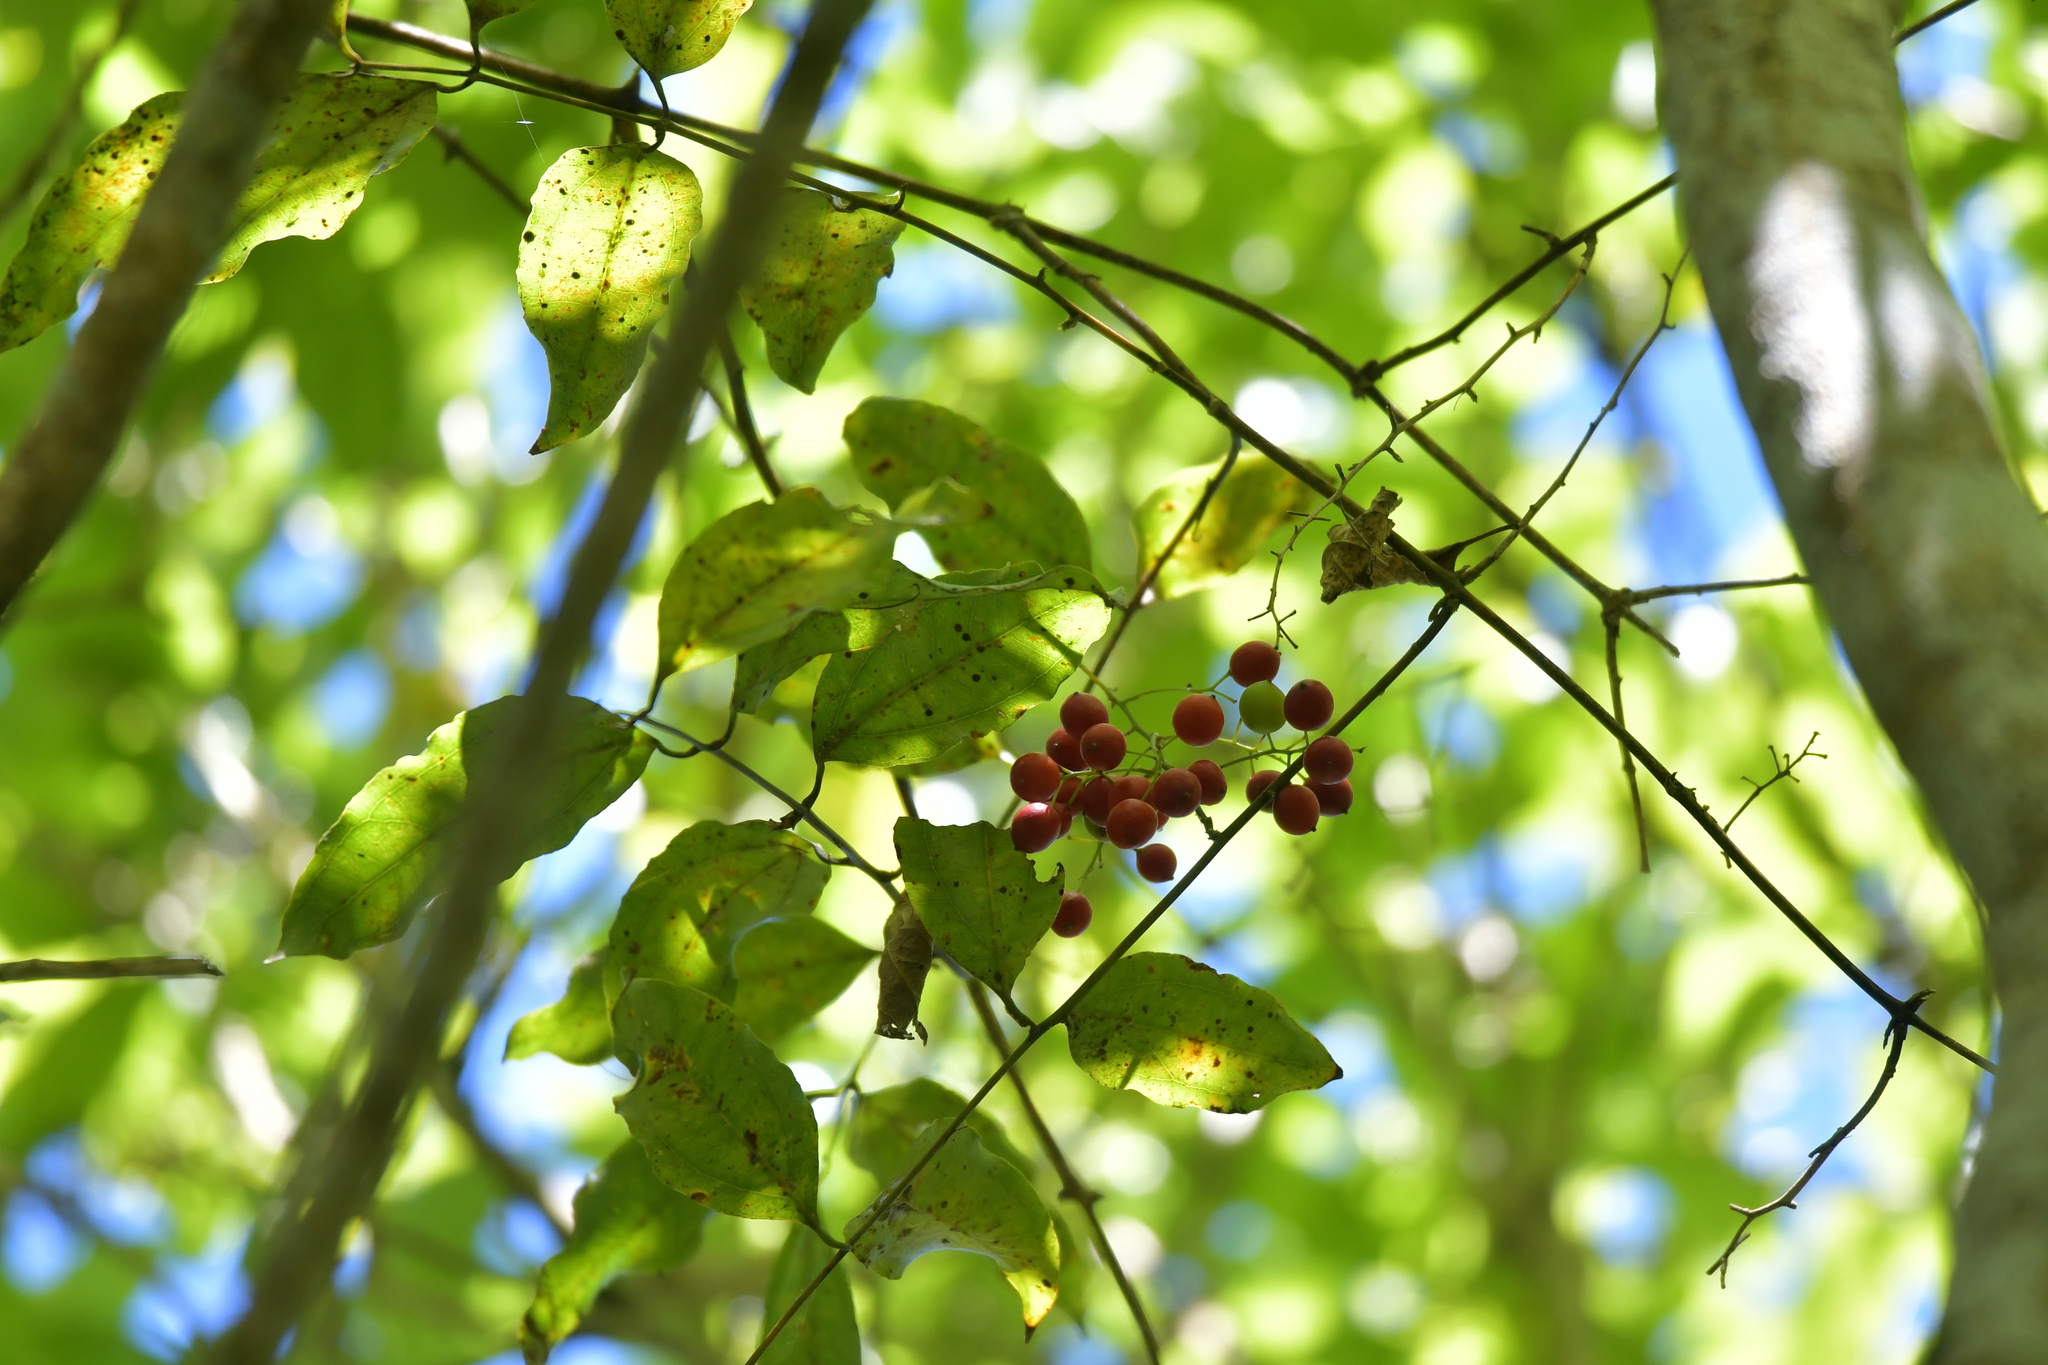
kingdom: Plantae
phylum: Tracheophyta
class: Liliopsida
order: Liliales
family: Ripogonaceae
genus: Ripogonum
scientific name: Ripogonum scandens
